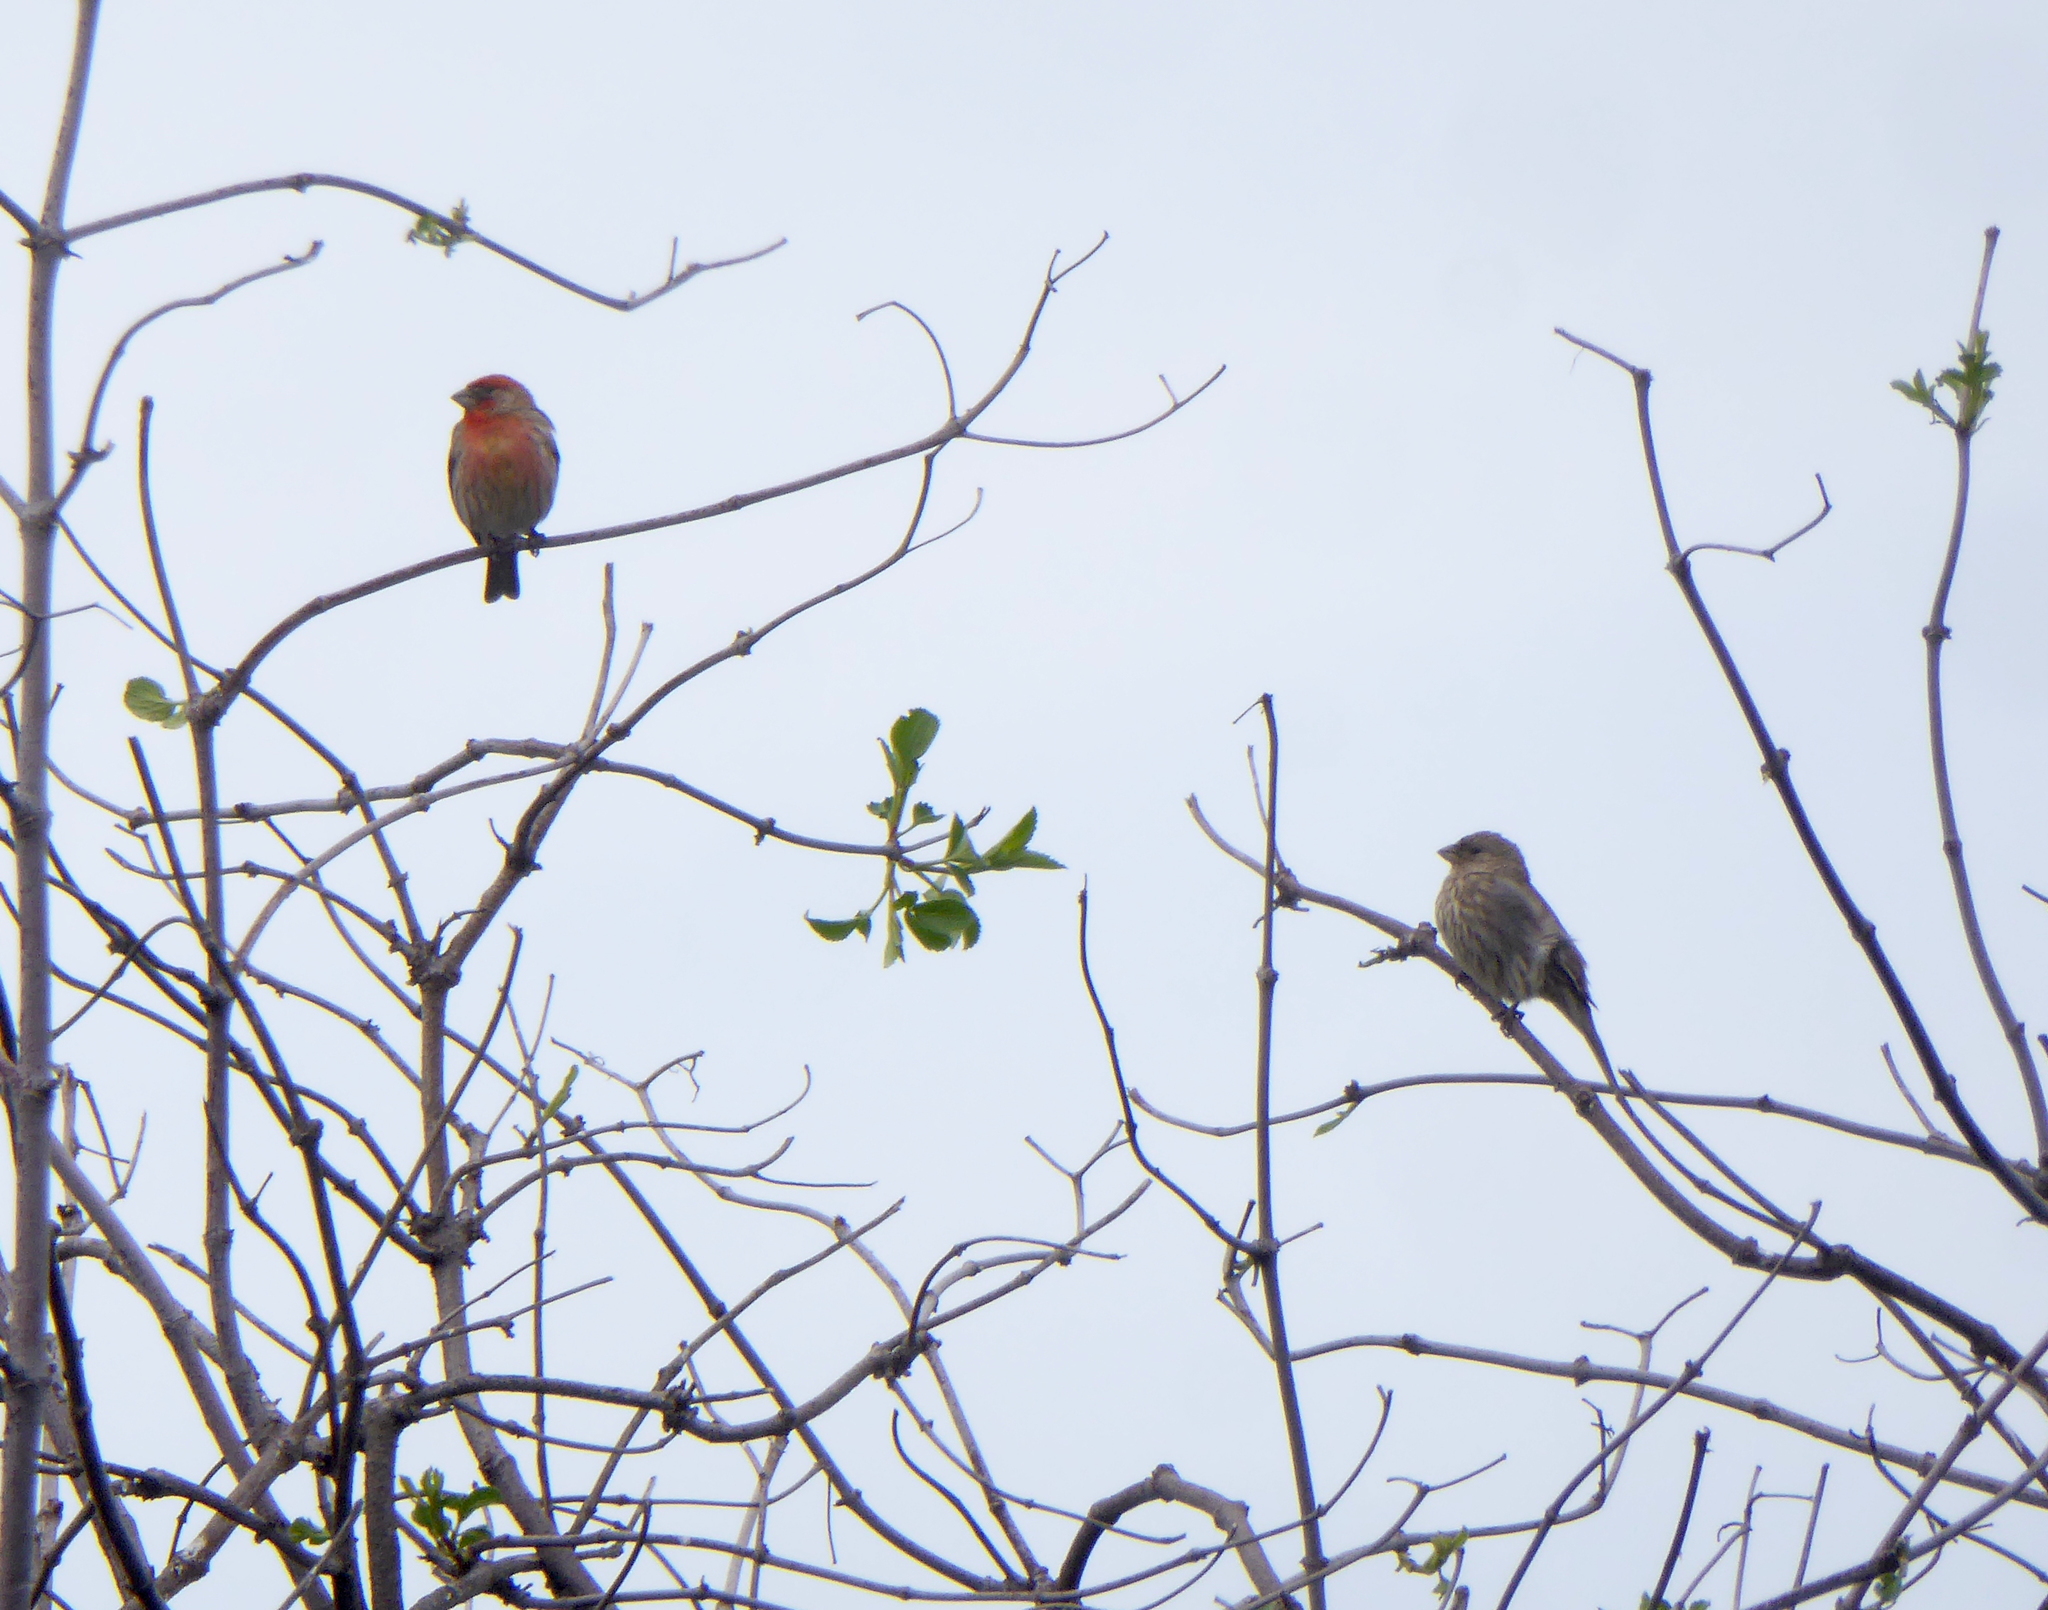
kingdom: Animalia
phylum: Chordata
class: Aves
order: Passeriformes
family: Fringillidae
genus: Haemorhous
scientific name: Haemorhous mexicanus
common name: House finch
